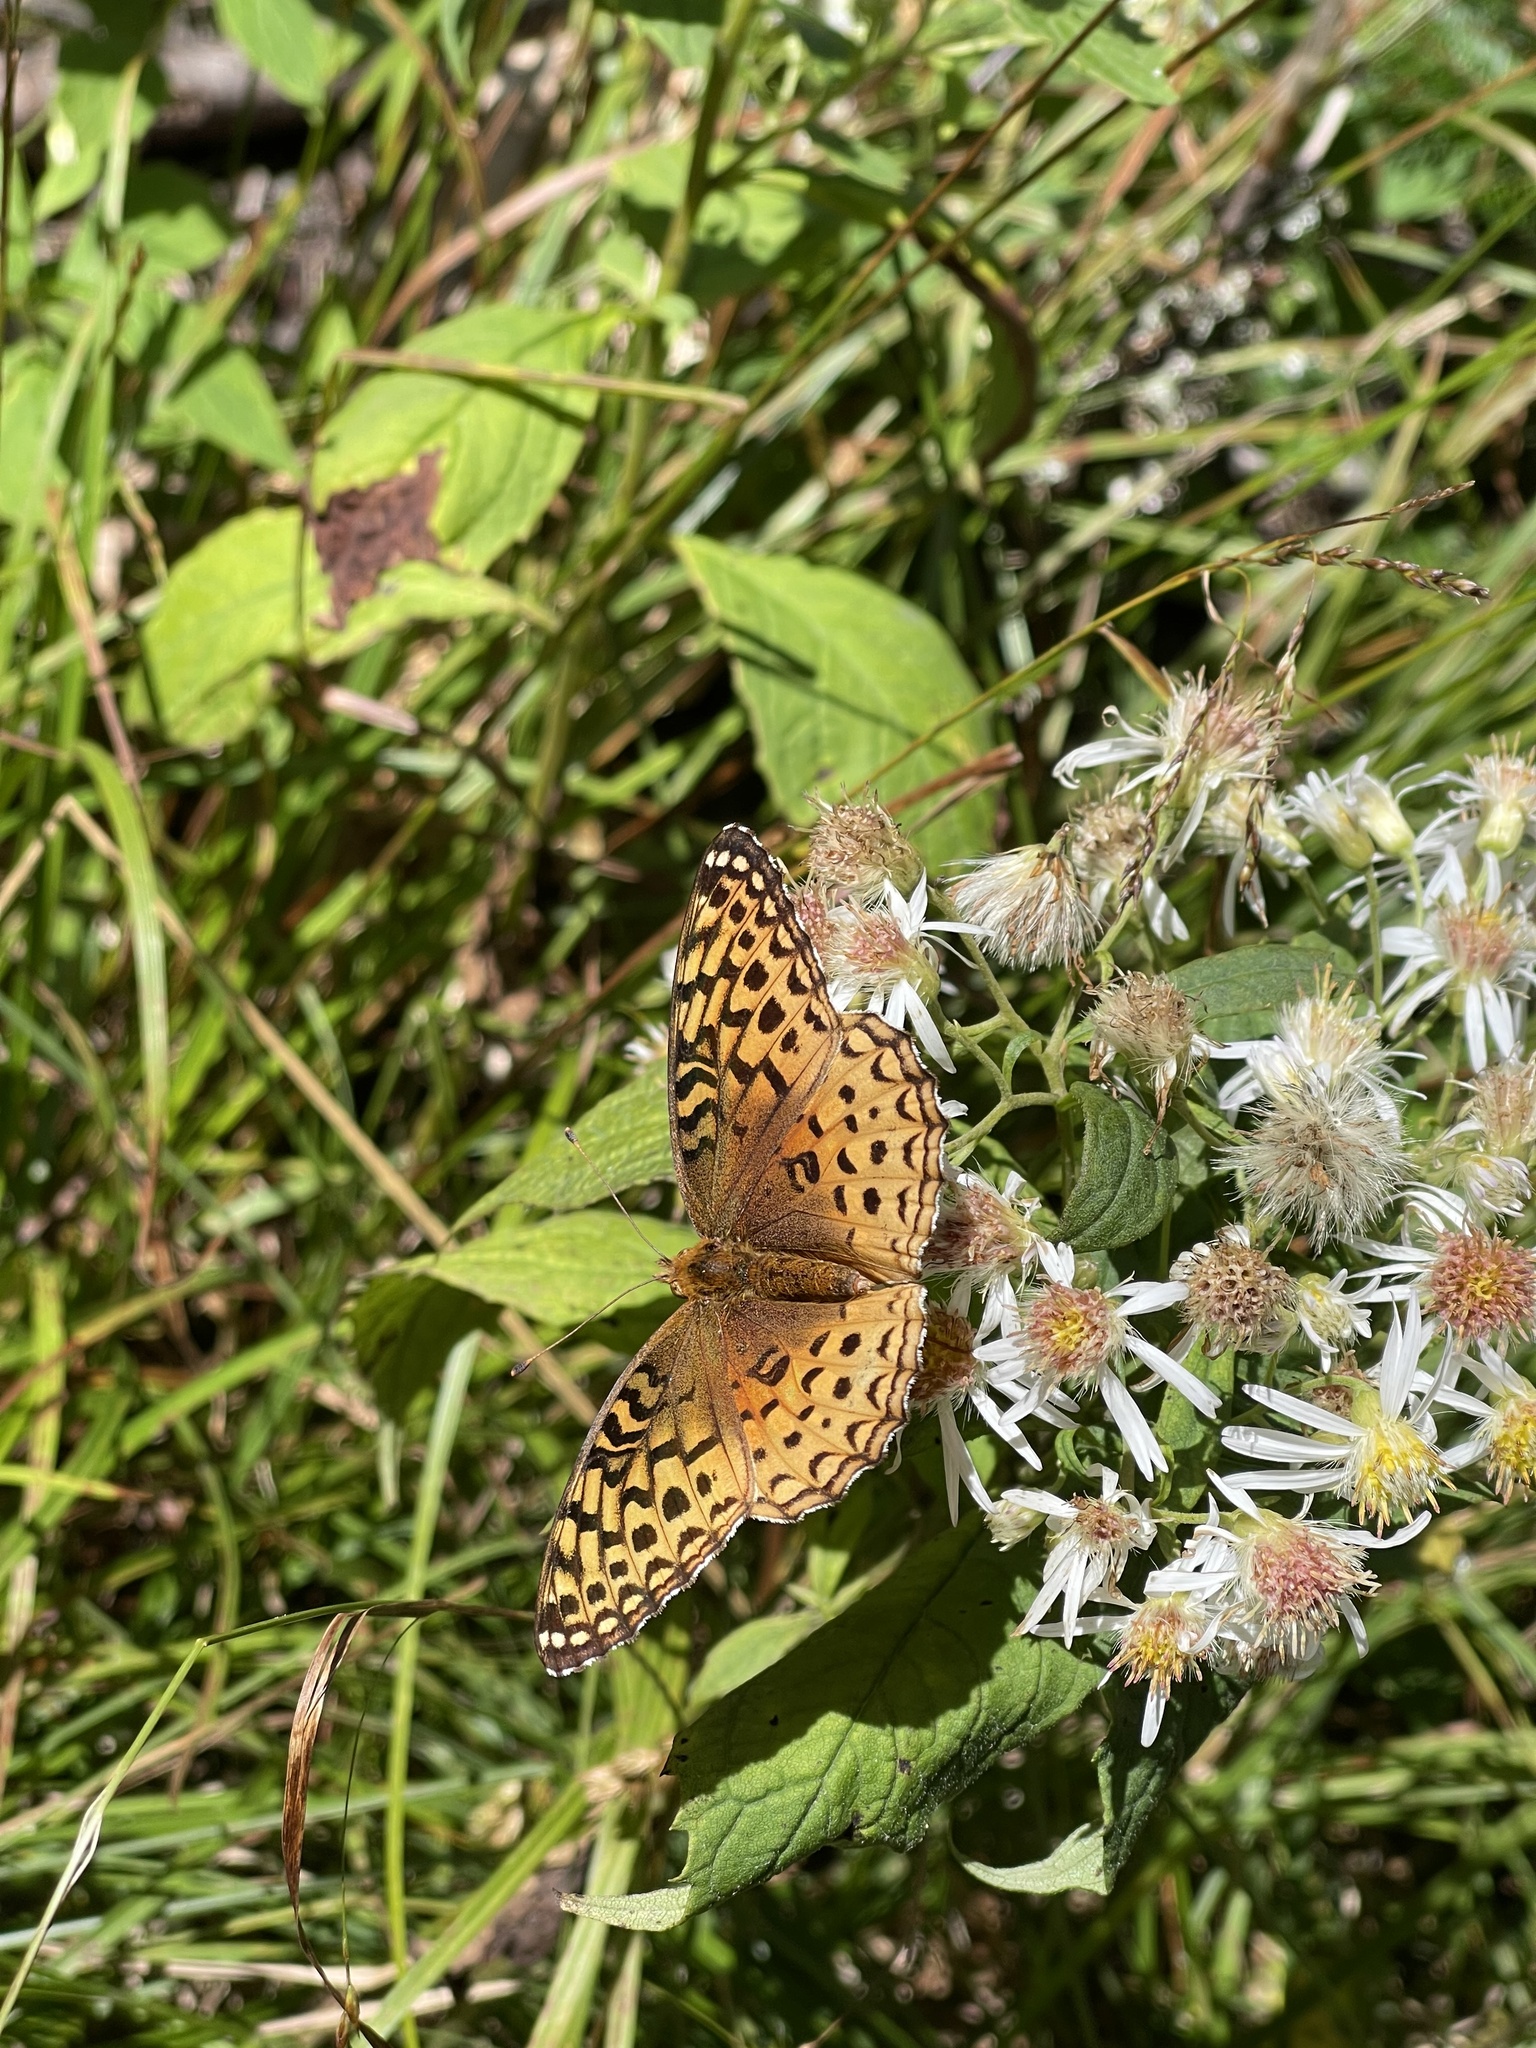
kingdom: Animalia
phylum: Arthropoda
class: Insecta
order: Lepidoptera
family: Nymphalidae
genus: Speyeria
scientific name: Speyeria aphrodite
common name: Aphrodite friitllary
